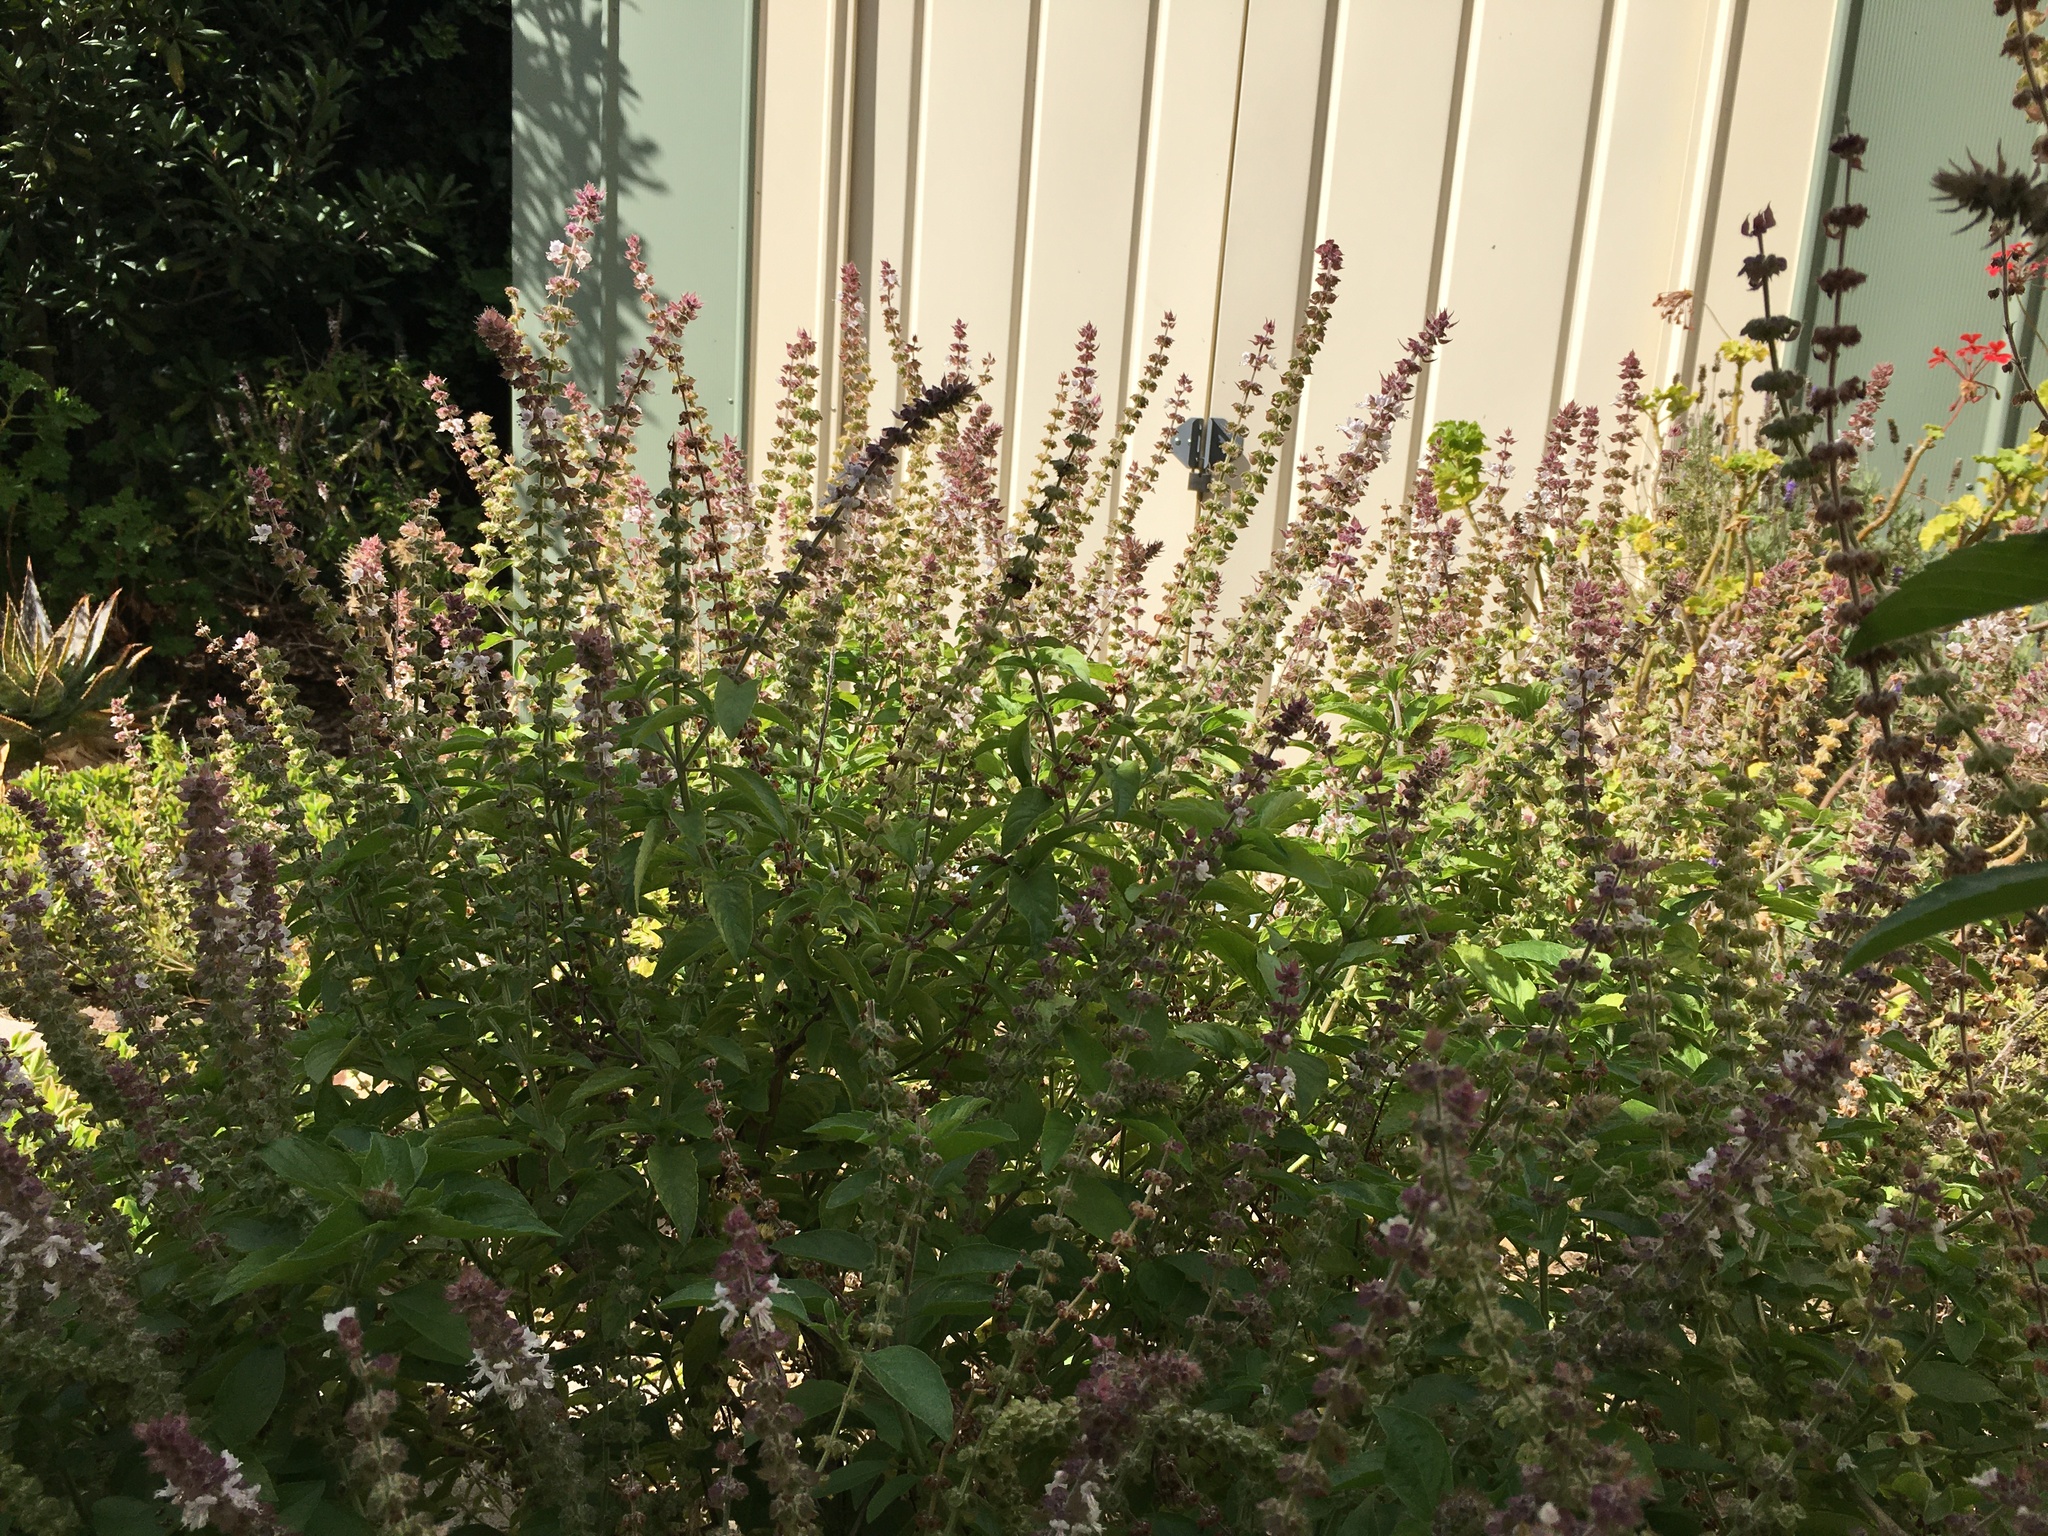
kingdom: Animalia
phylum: Arthropoda
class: Insecta
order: Hymenoptera
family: Apidae
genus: Apis
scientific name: Apis mellifera
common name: Honey bee
